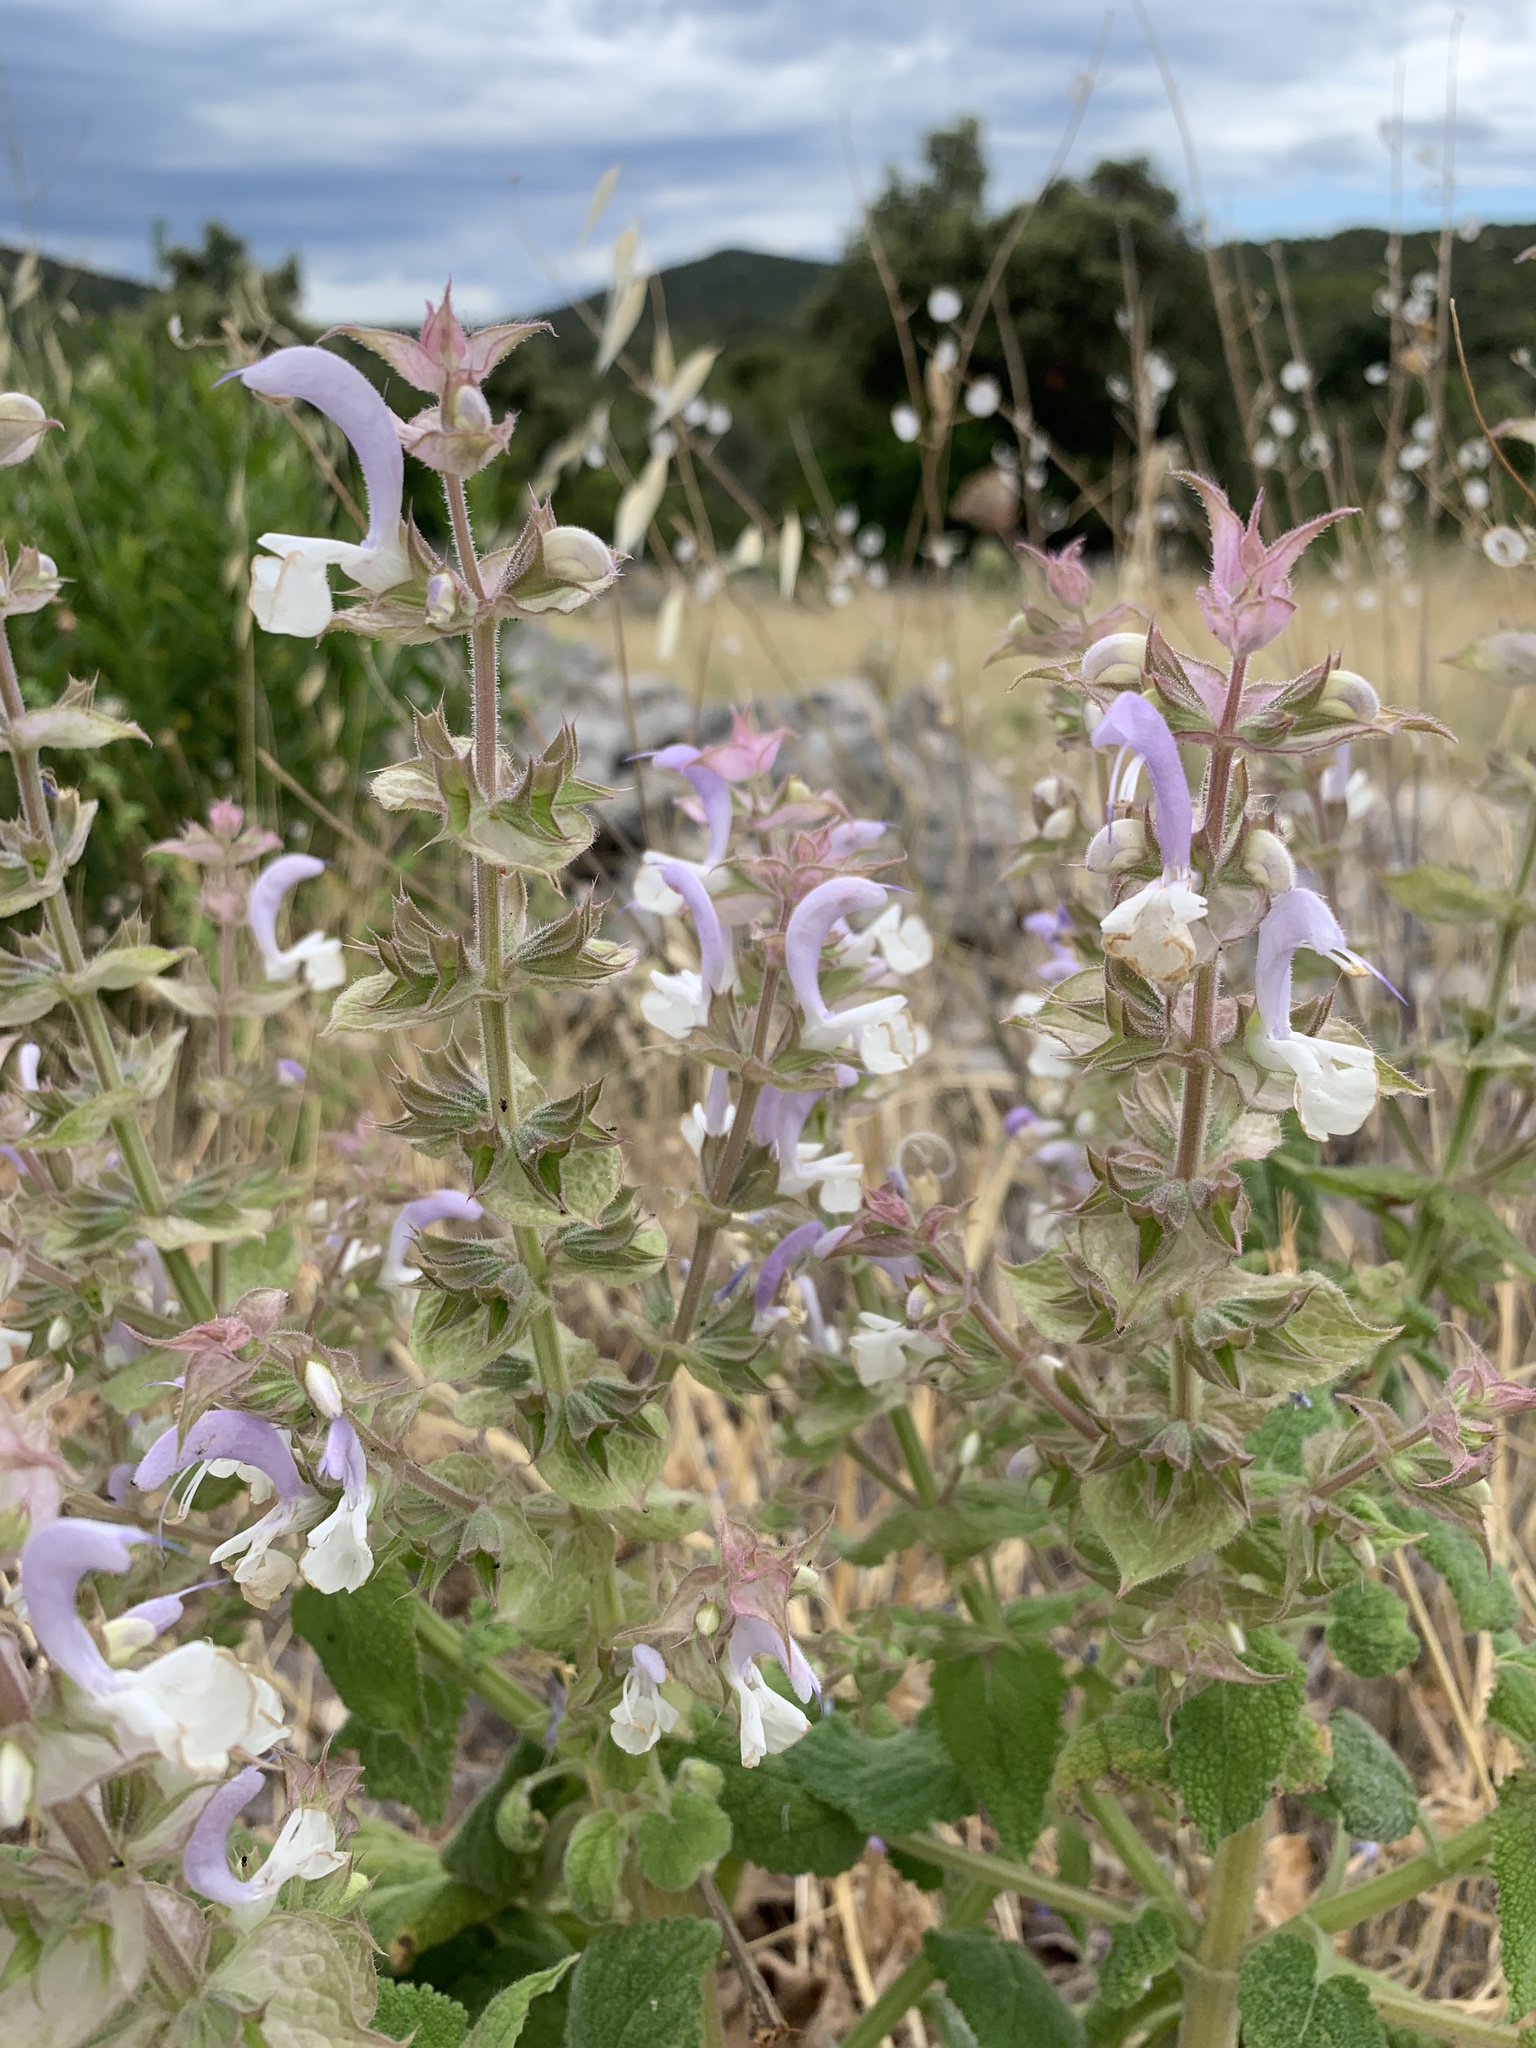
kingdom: Plantae
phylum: Tracheophyta
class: Magnoliopsida
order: Lamiales
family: Lamiaceae
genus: Salvia
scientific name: Salvia sclarea
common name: Clary
